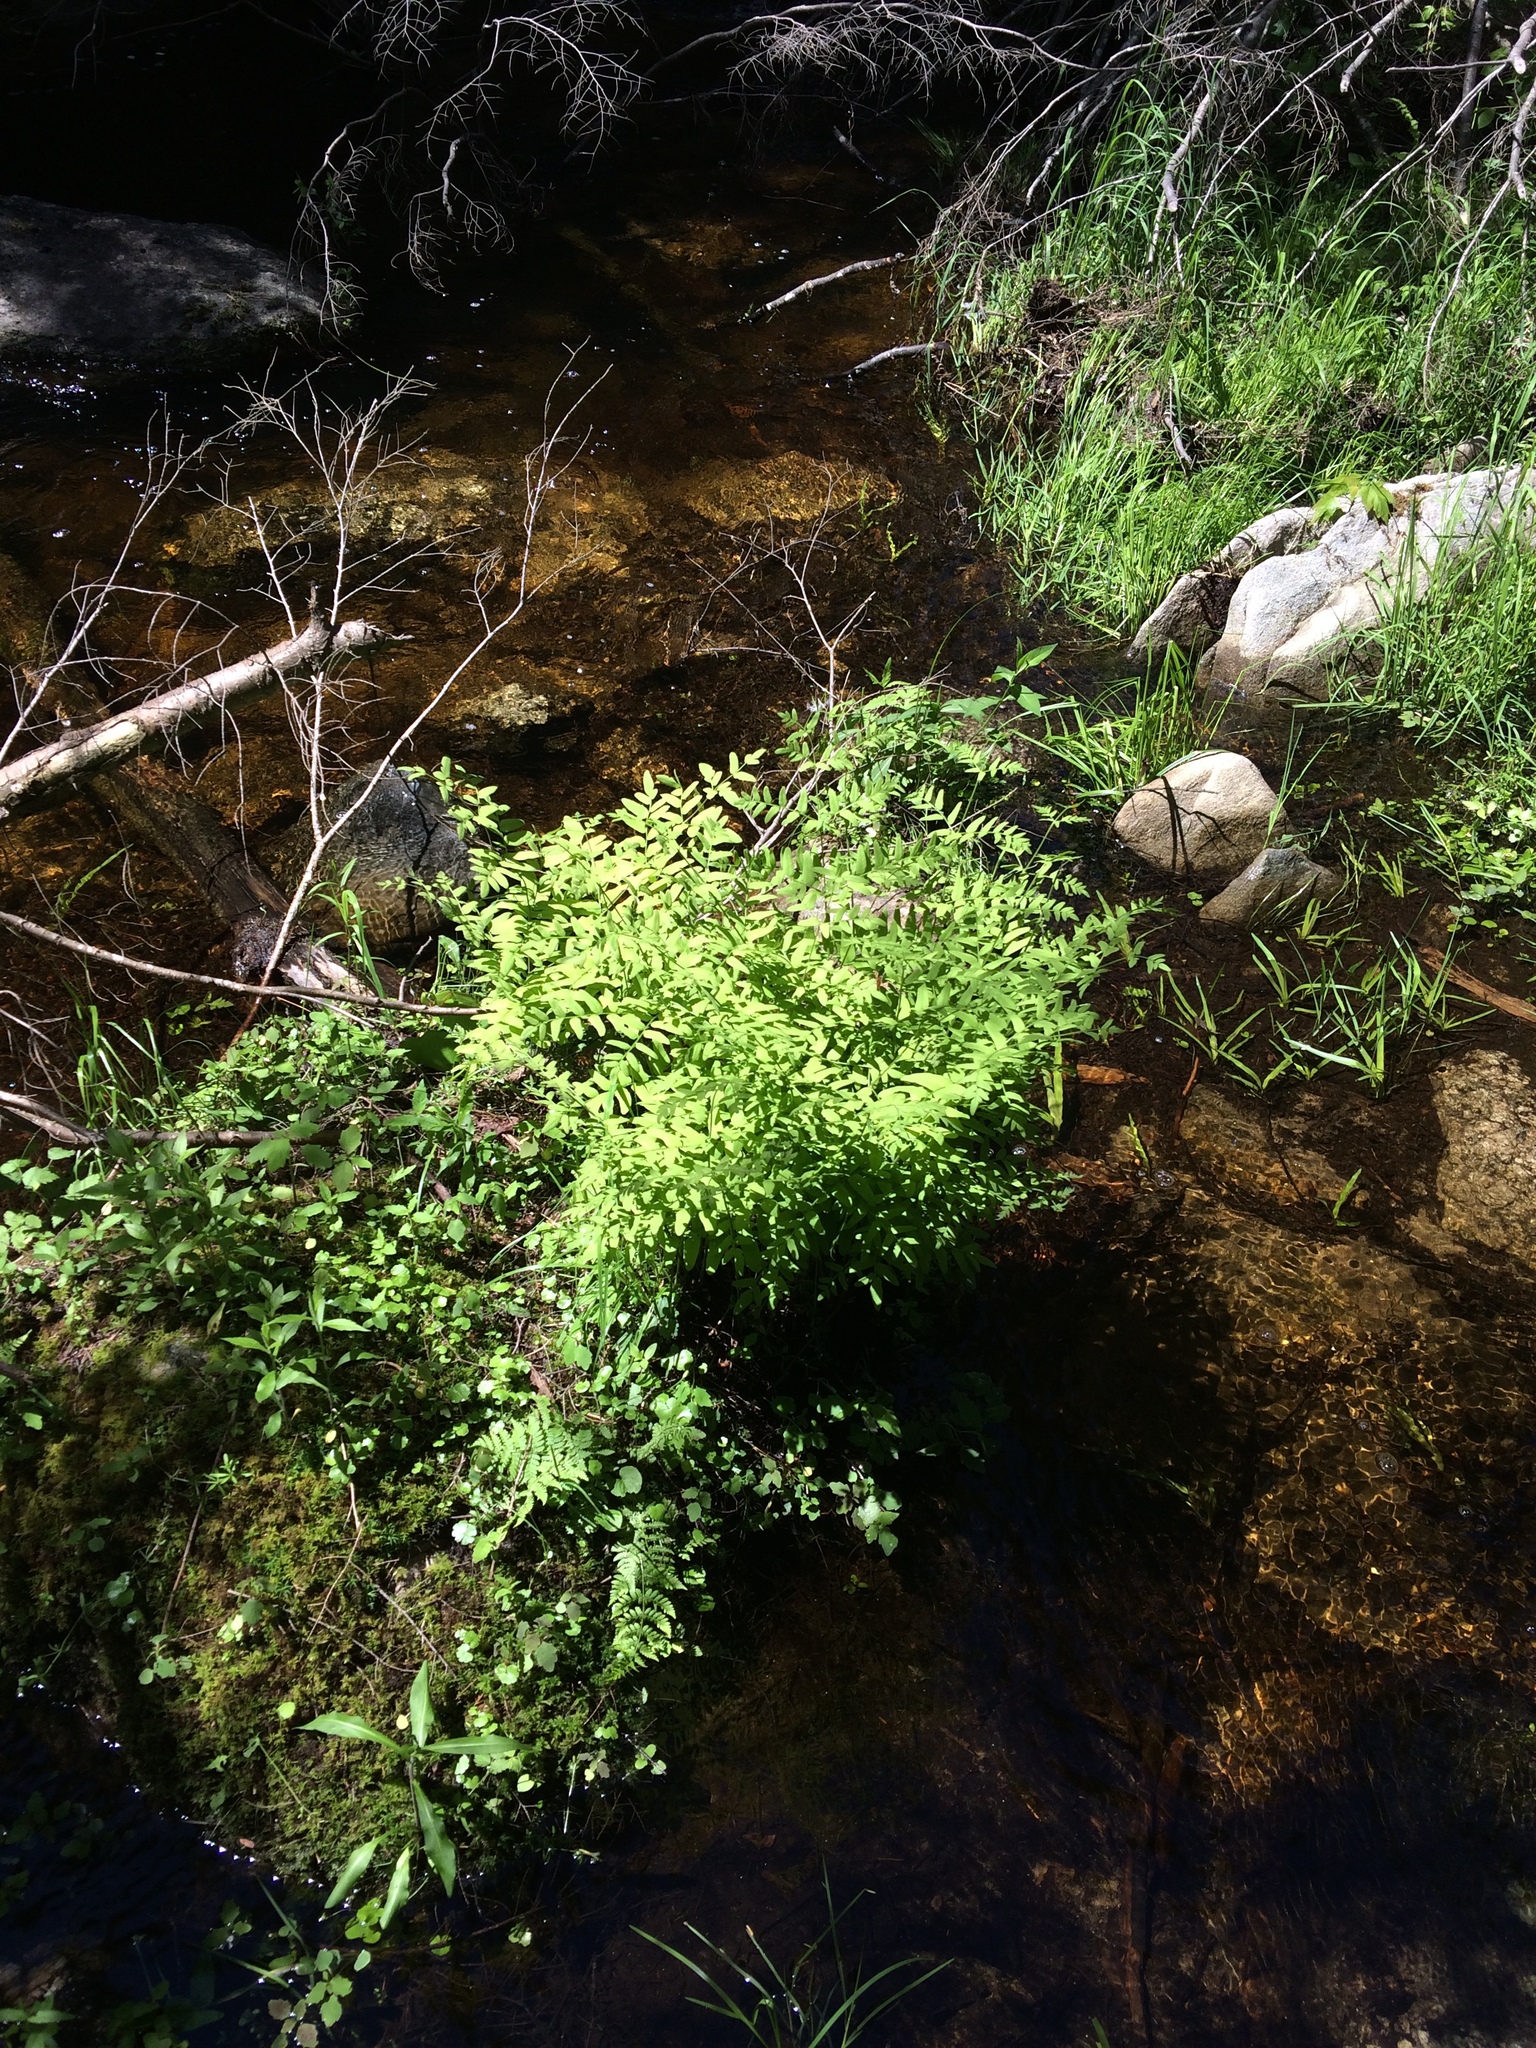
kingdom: Plantae
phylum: Tracheophyta
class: Polypodiopsida
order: Osmundales
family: Osmundaceae
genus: Osmunda
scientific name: Osmunda spectabilis
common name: American royal fern
